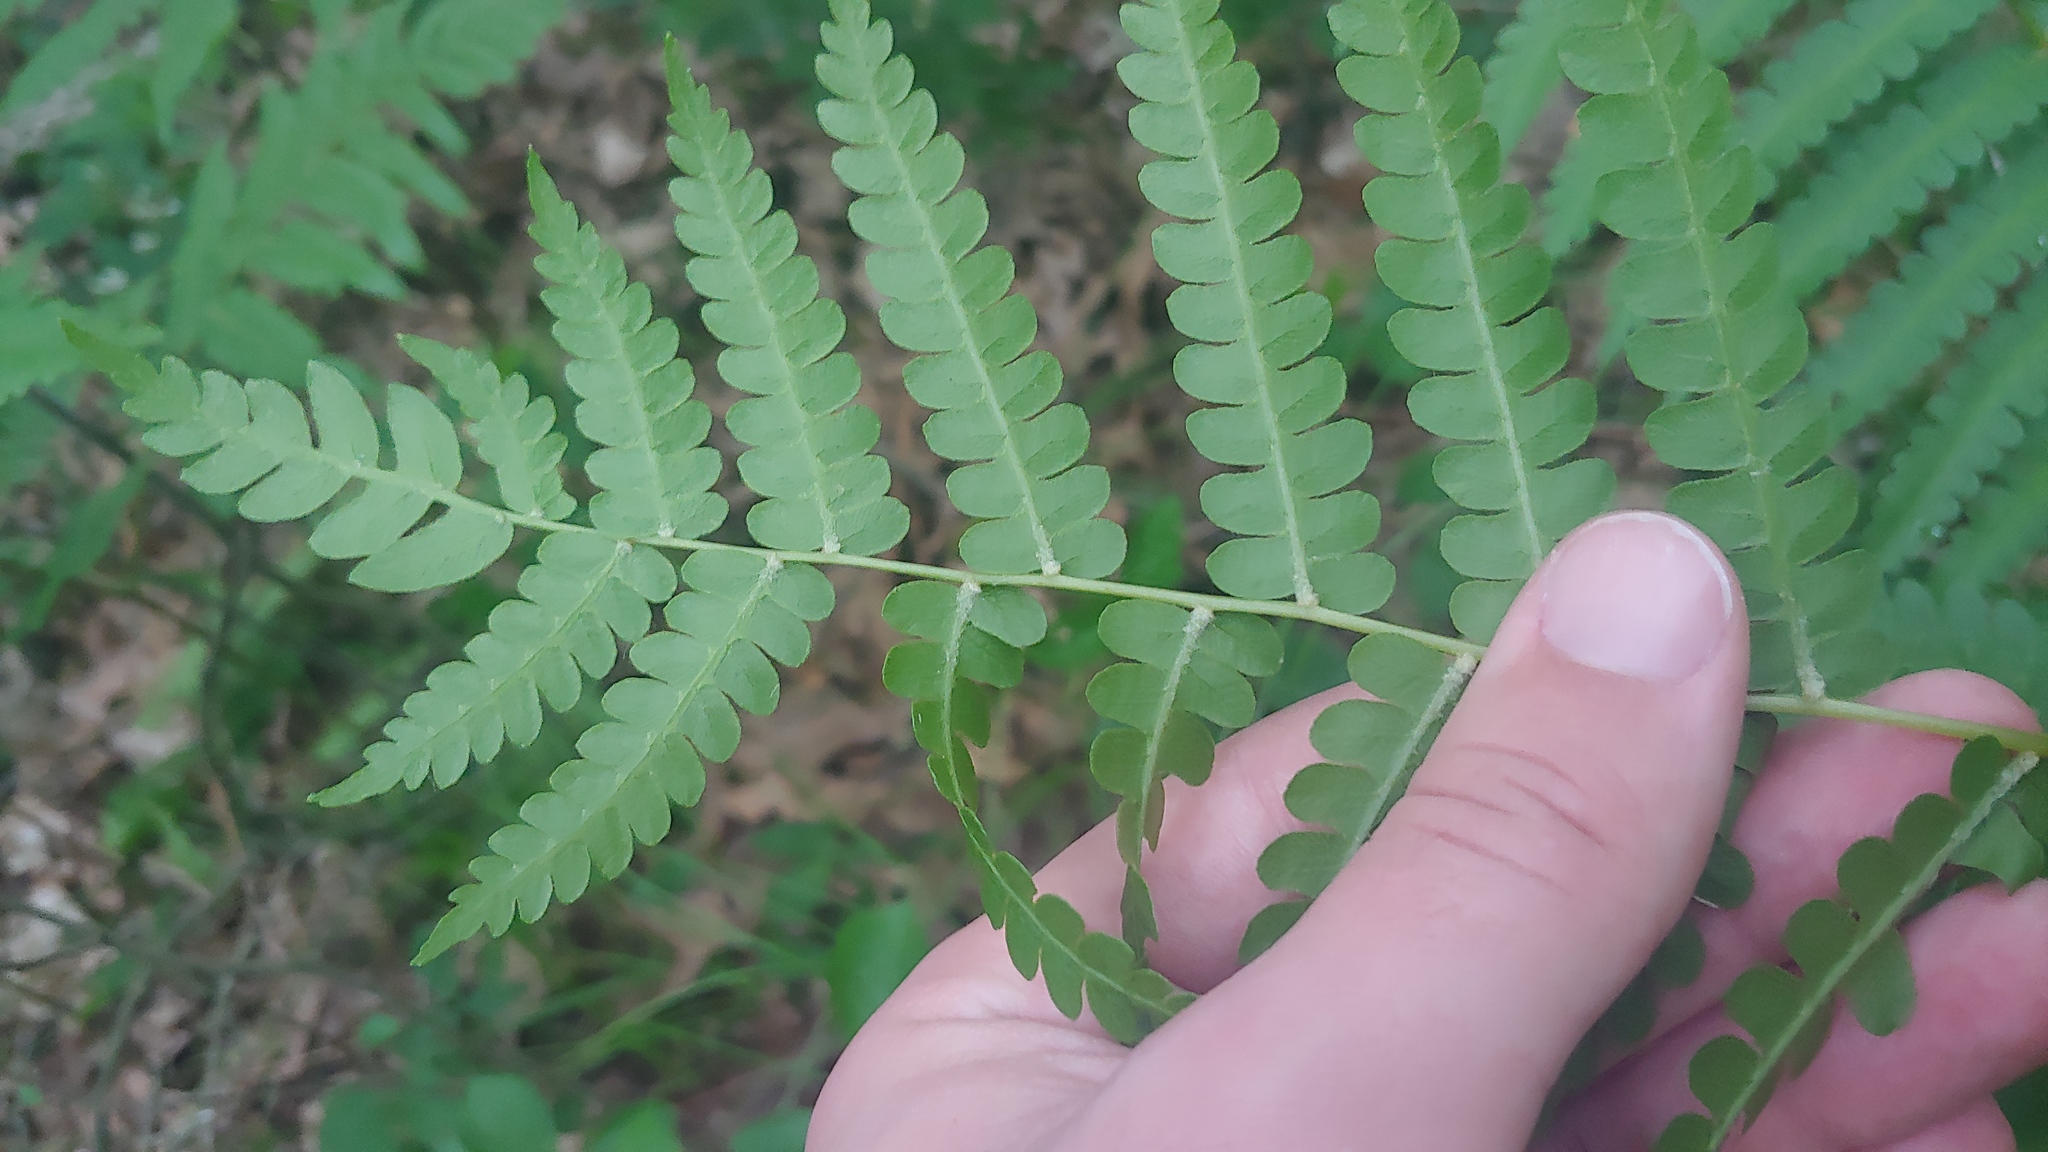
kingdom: Plantae
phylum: Tracheophyta
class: Polypodiopsida
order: Osmundales
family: Osmundaceae
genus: Osmundastrum
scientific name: Osmundastrum cinnamomeum
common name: Cinnamon fern
